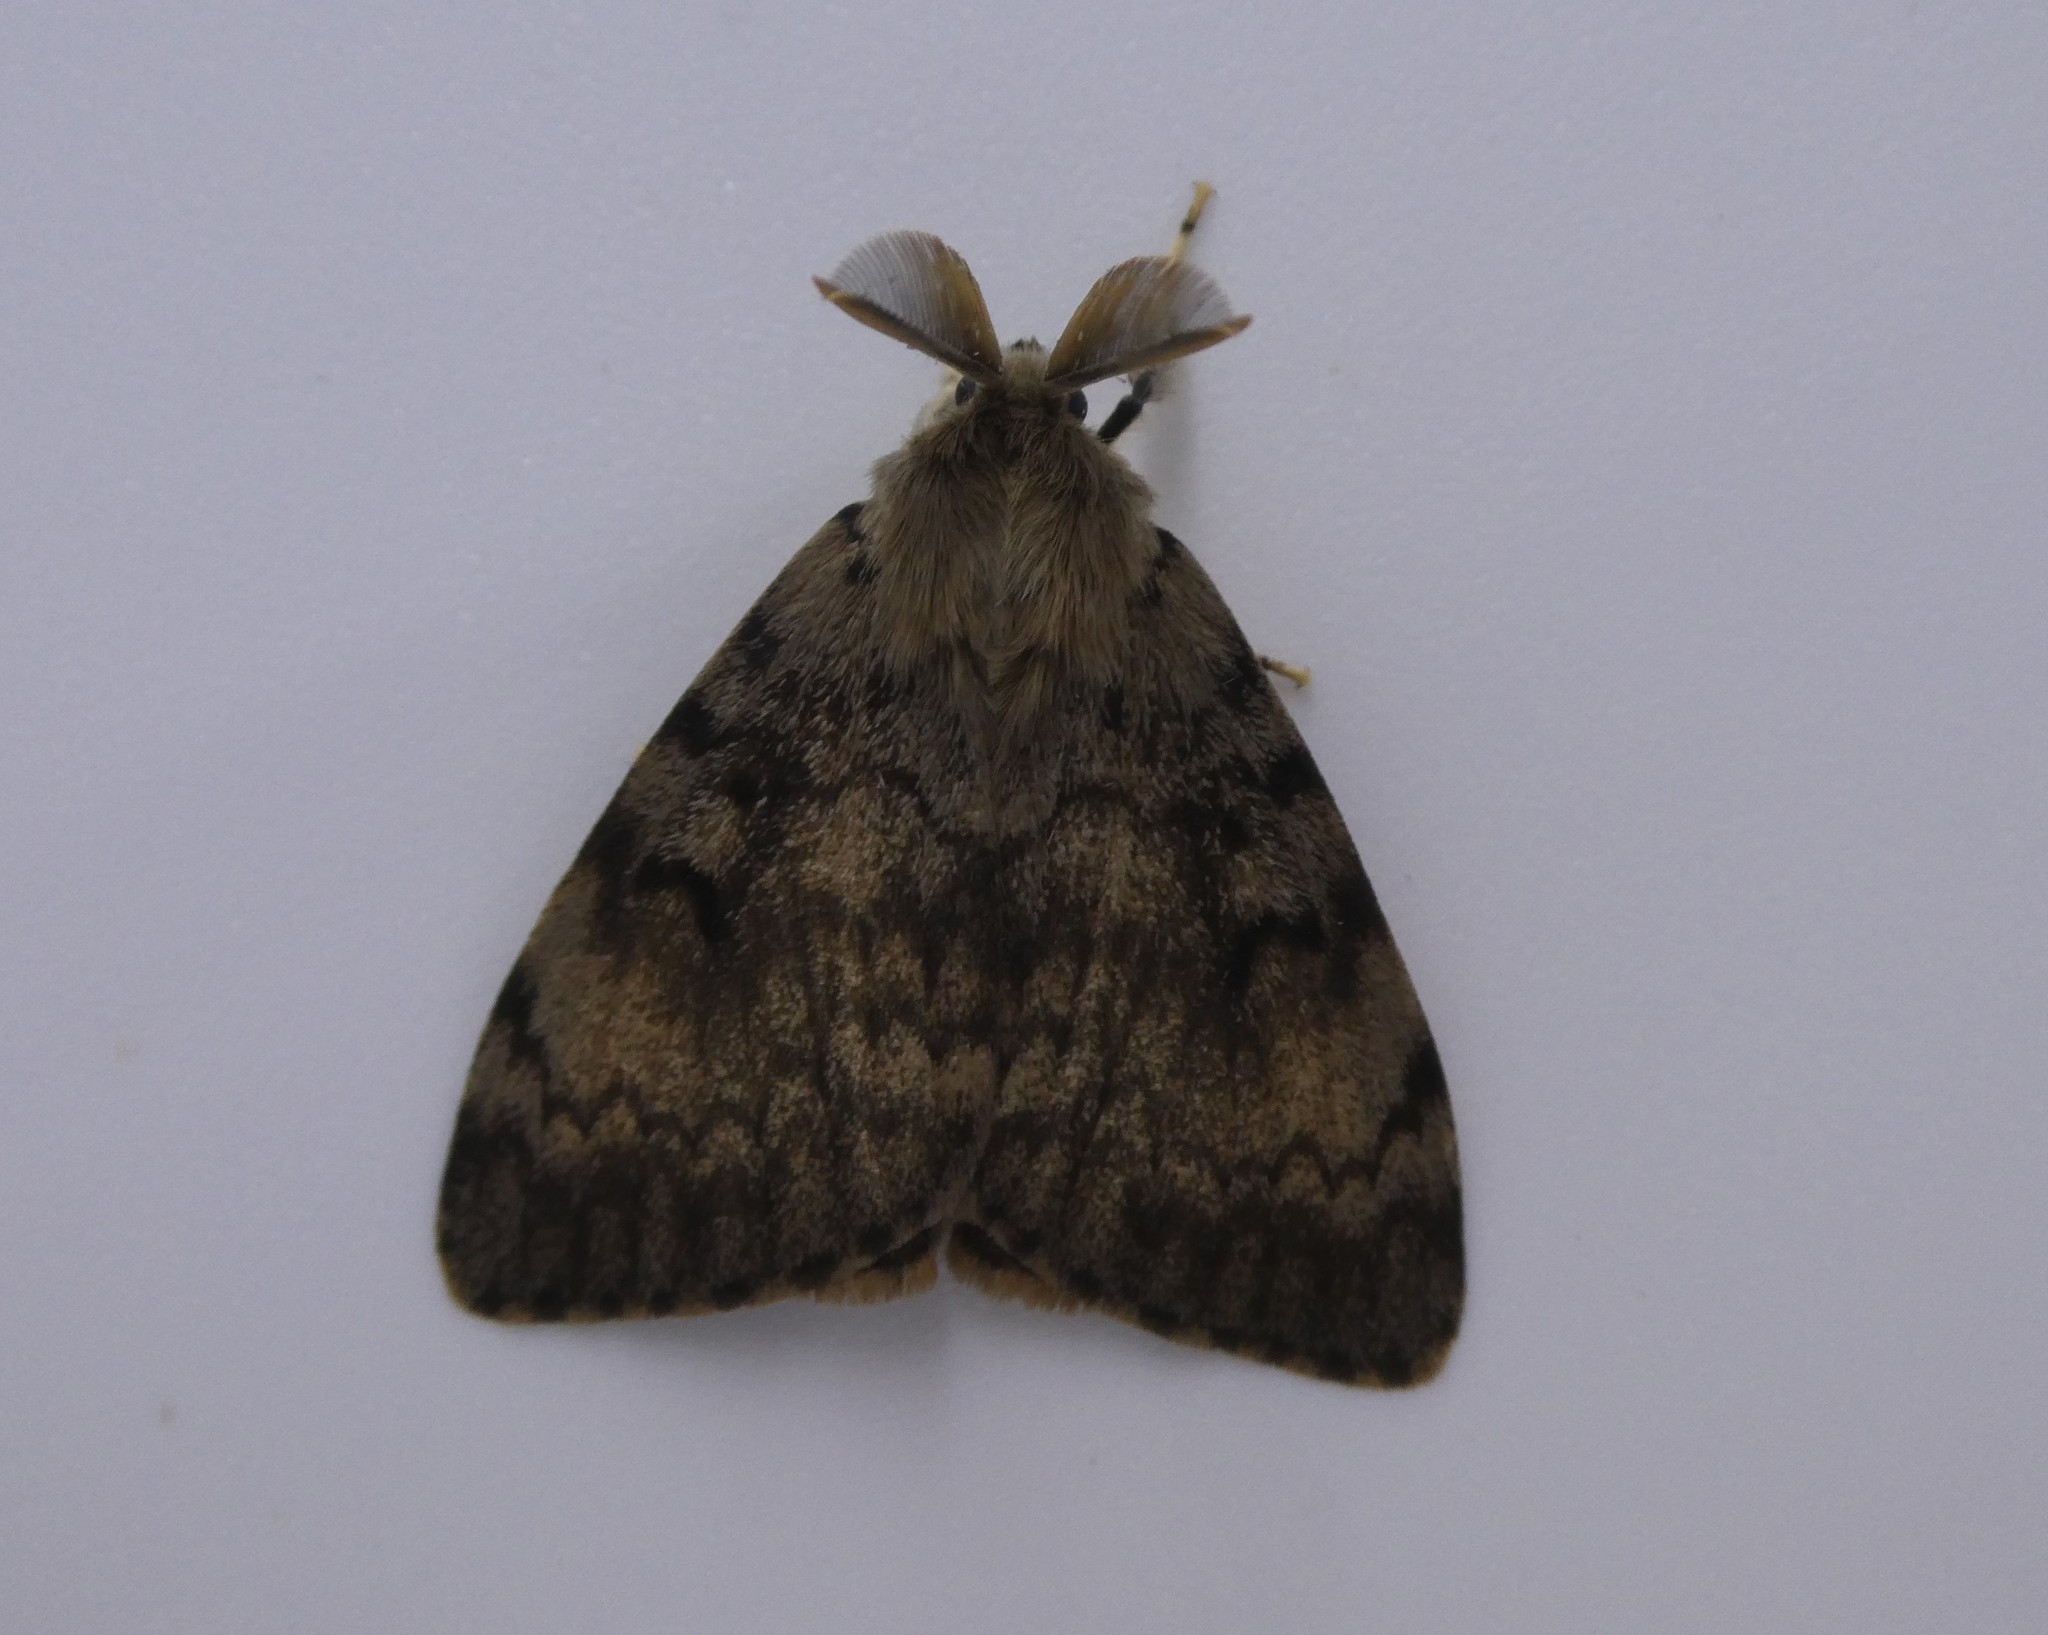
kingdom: Animalia
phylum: Arthropoda
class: Insecta
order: Lepidoptera
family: Erebidae
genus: Lymantria
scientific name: Lymantria dispar
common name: Gypsy moth
